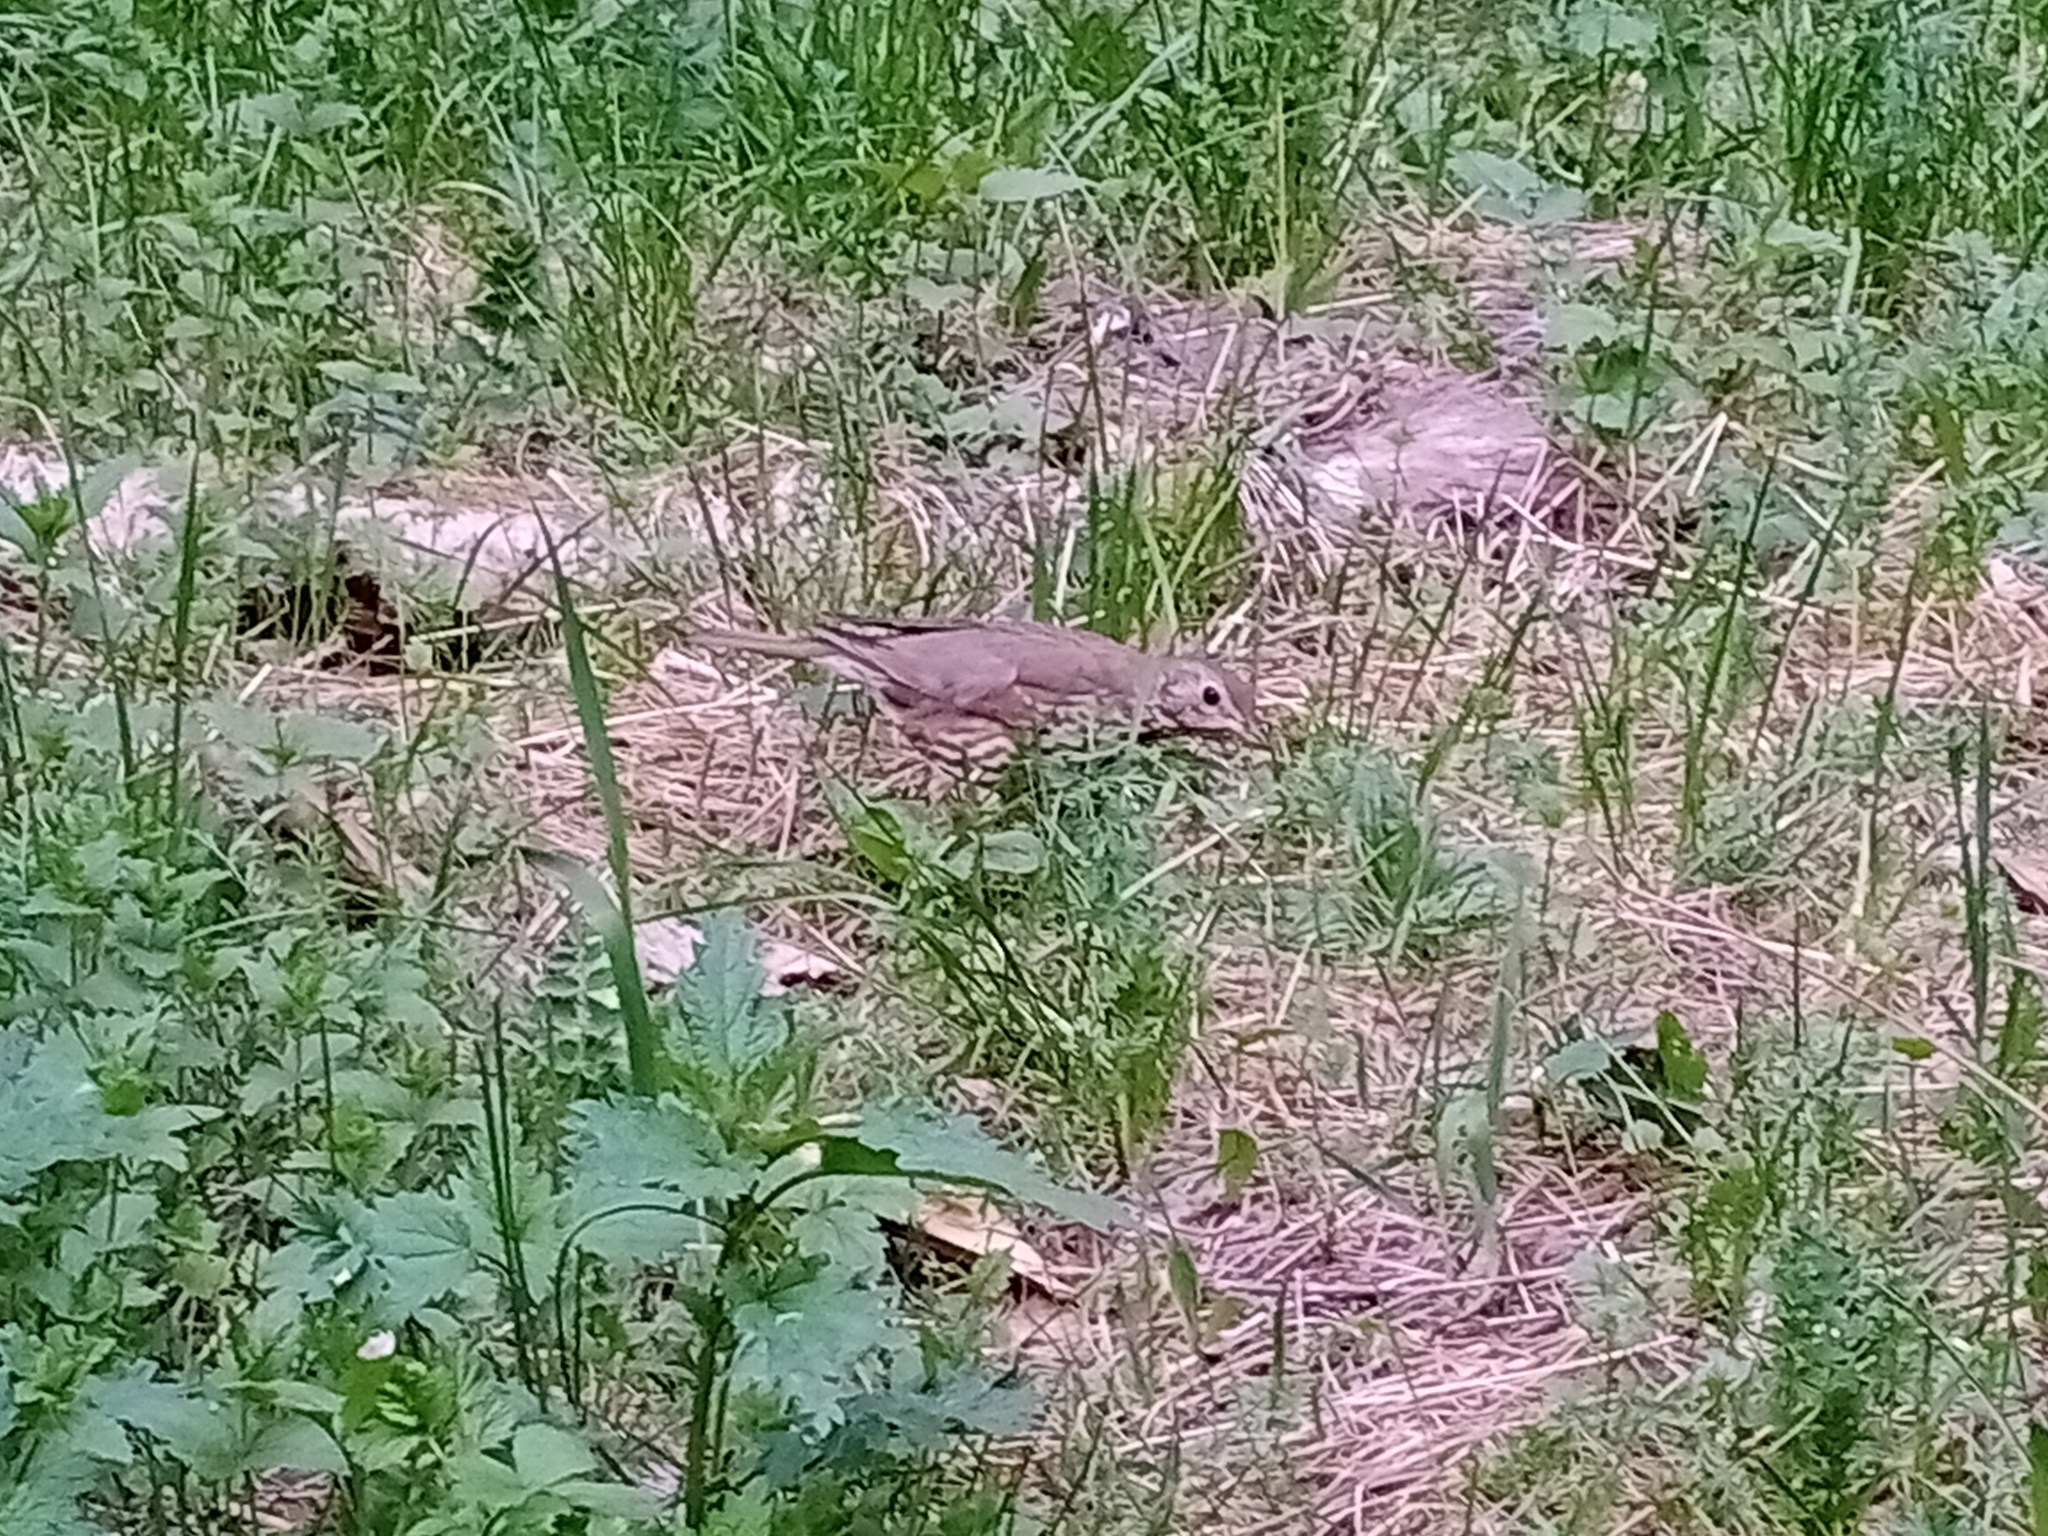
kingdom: Animalia
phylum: Chordata
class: Aves
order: Passeriformes
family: Turdidae
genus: Turdus
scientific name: Turdus philomelos
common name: Song thrush
